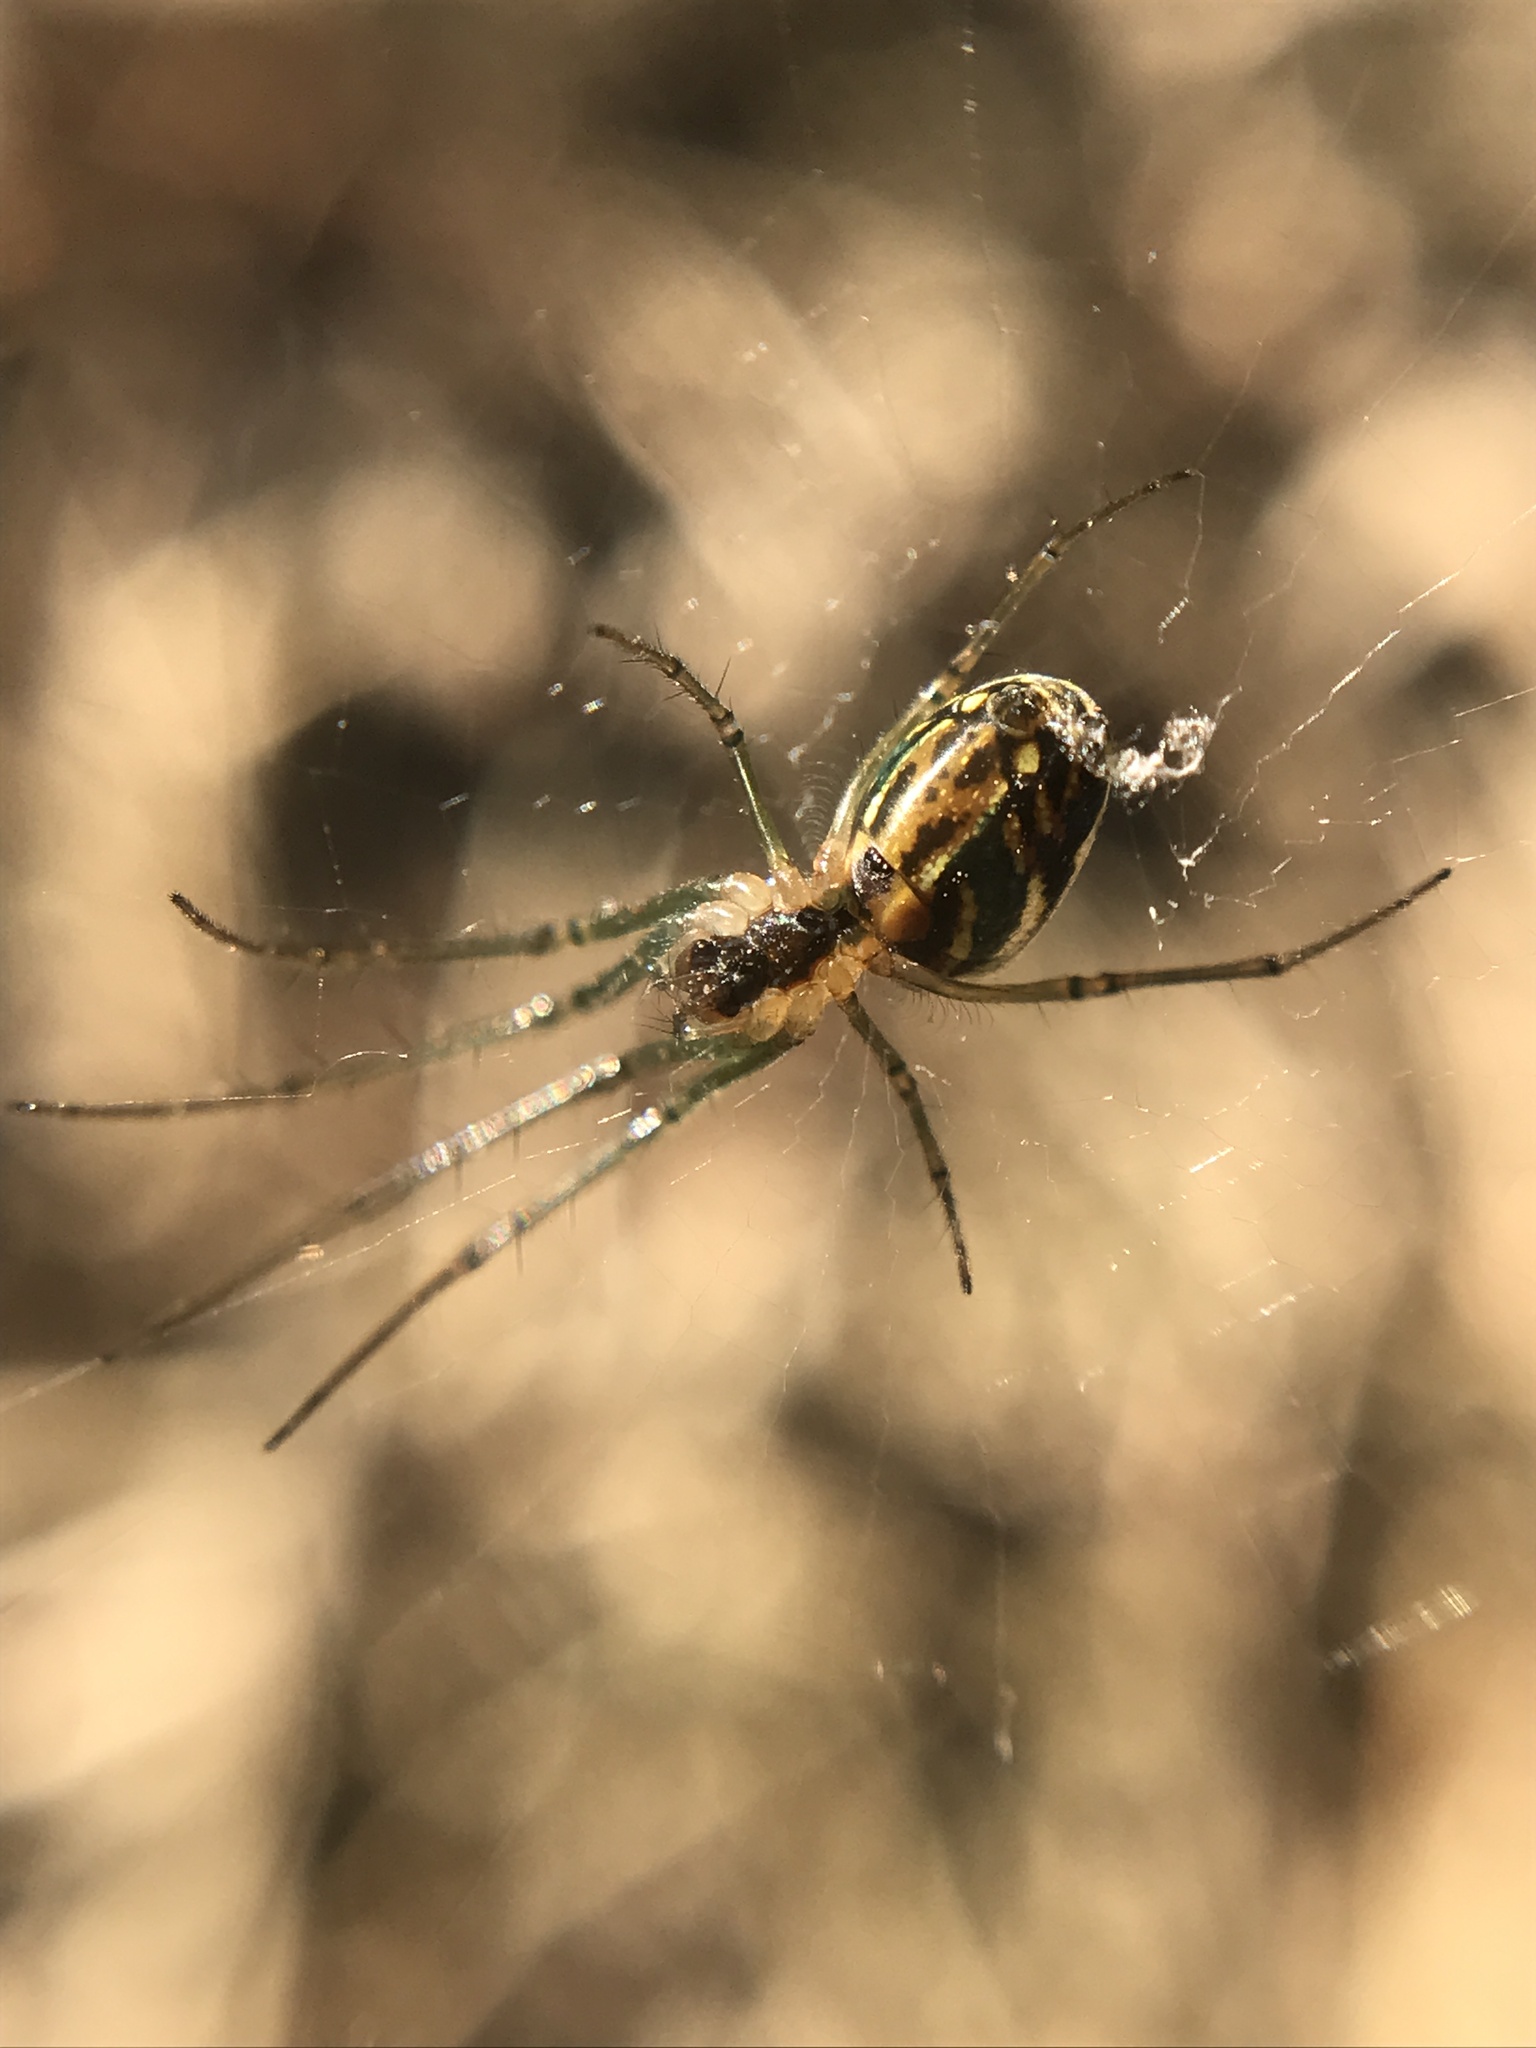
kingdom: Animalia
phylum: Arthropoda
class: Arachnida
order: Araneae
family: Tetragnathidae
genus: Leucauge
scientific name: Leucauge volupis
